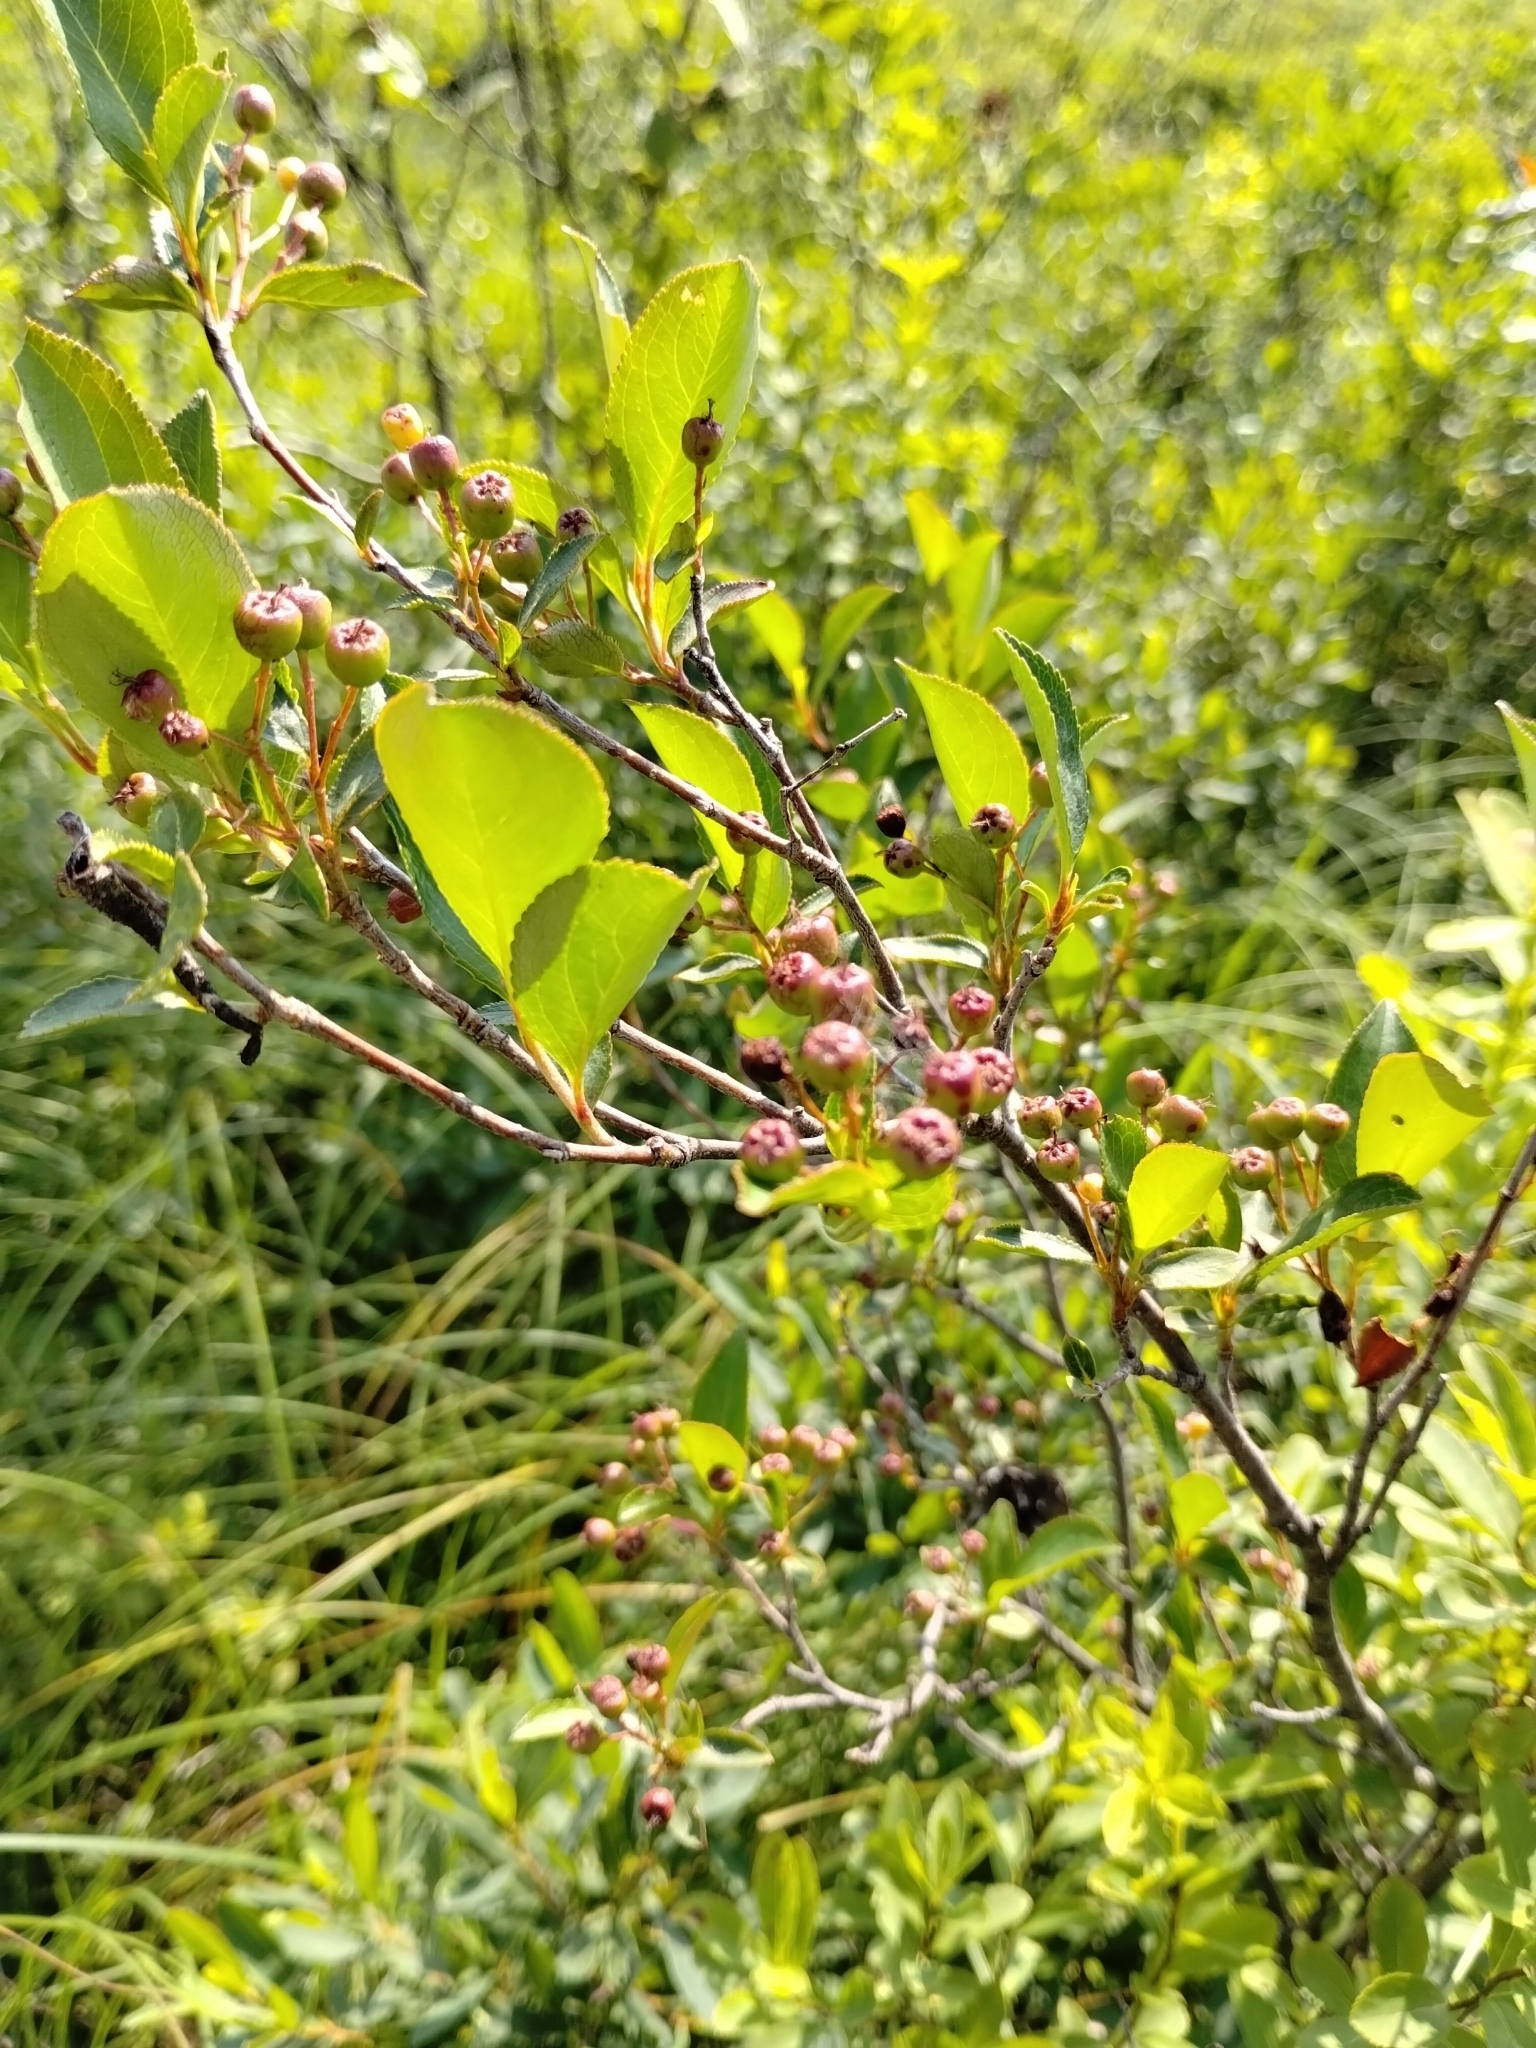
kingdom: Plantae
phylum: Tracheophyta
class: Magnoliopsida
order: Rosales
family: Rosaceae
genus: Aronia
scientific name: Aronia melanocarpa
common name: Black chokeberry
